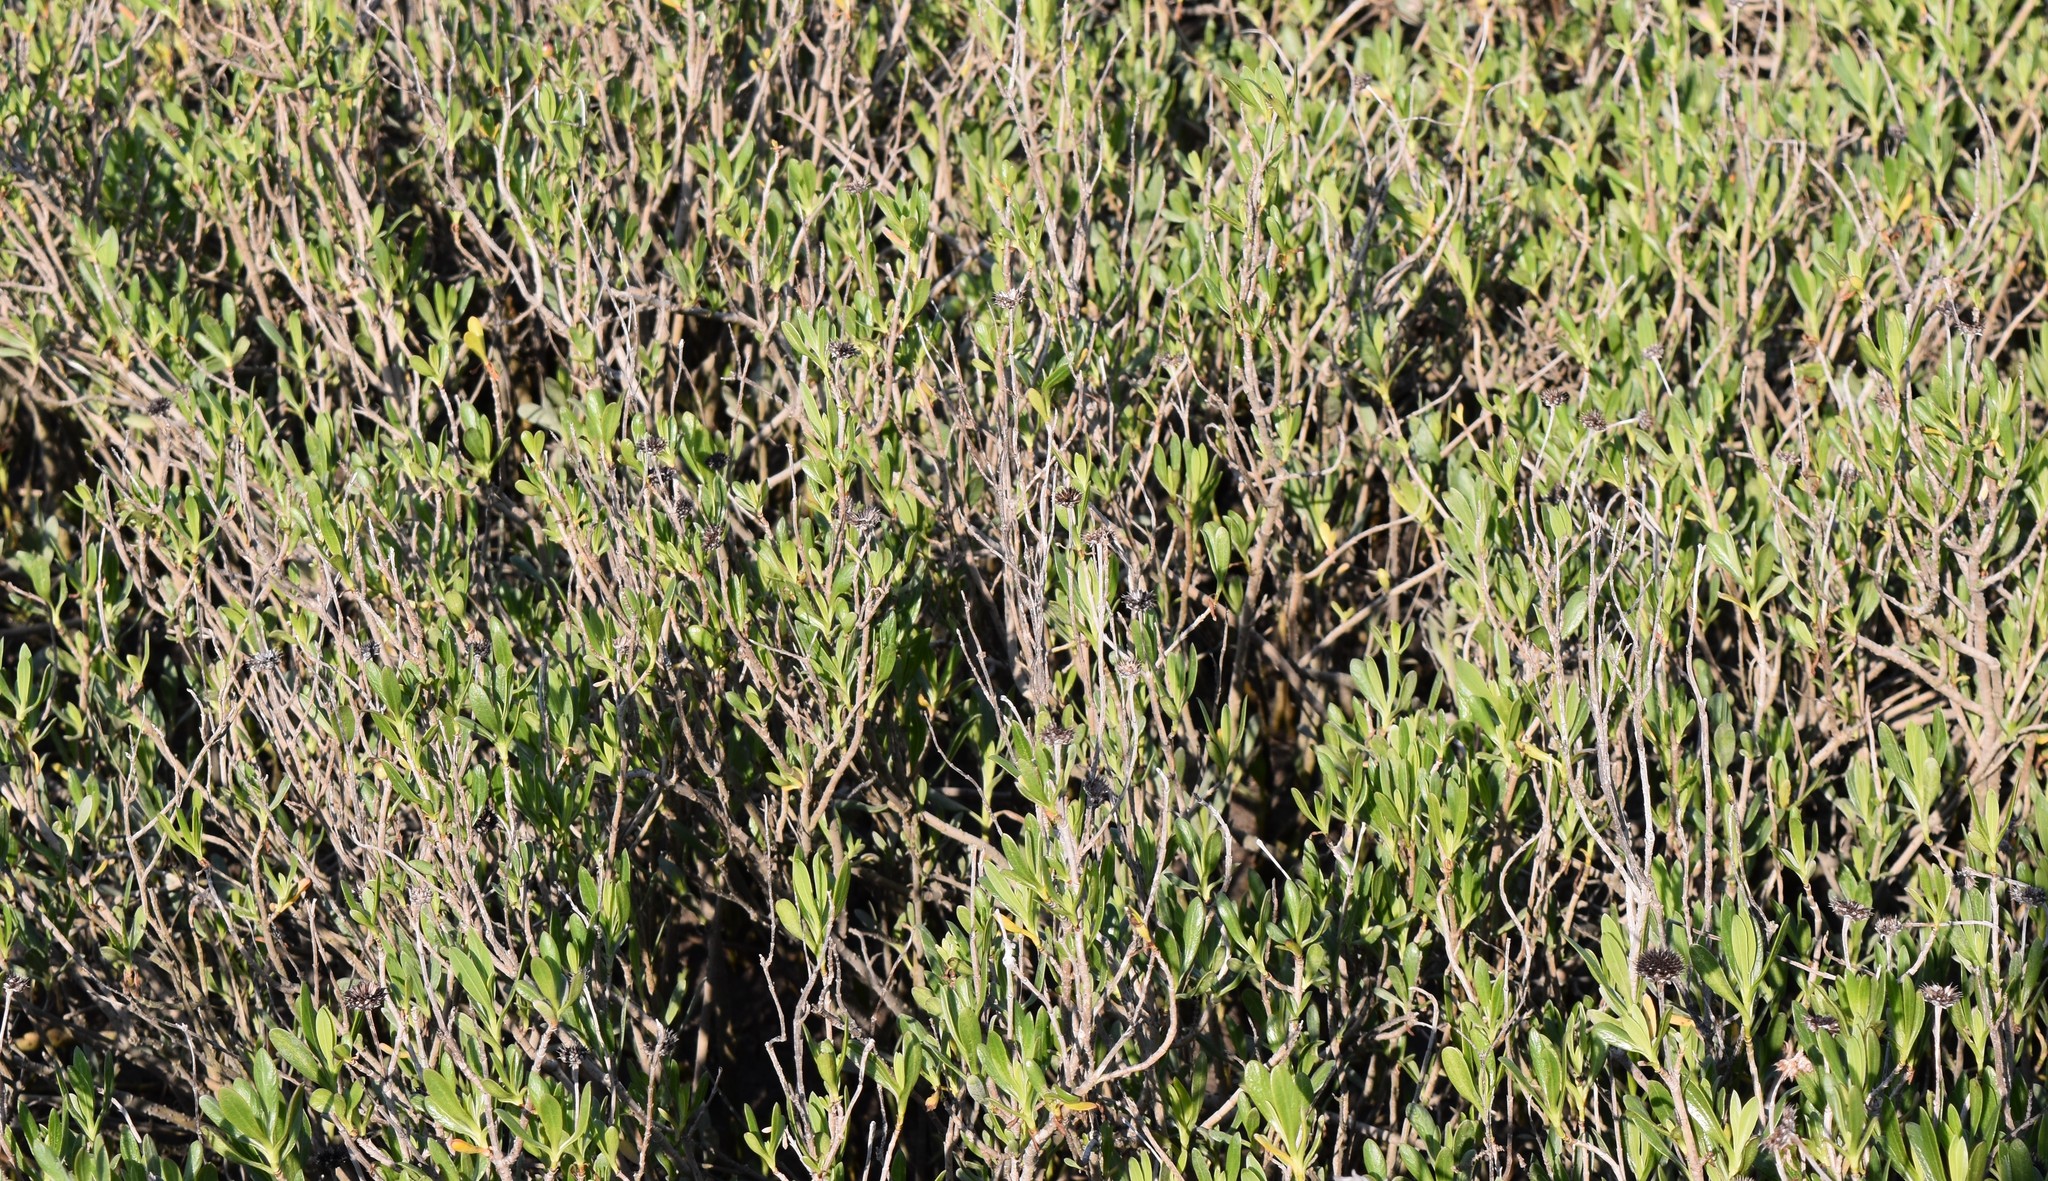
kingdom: Plantae
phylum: Tracheophyta
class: Magnoliopsida
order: Asterales
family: Asteraceae
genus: Borrichia
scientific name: Borrichia frutescens
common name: Sea oxeye
